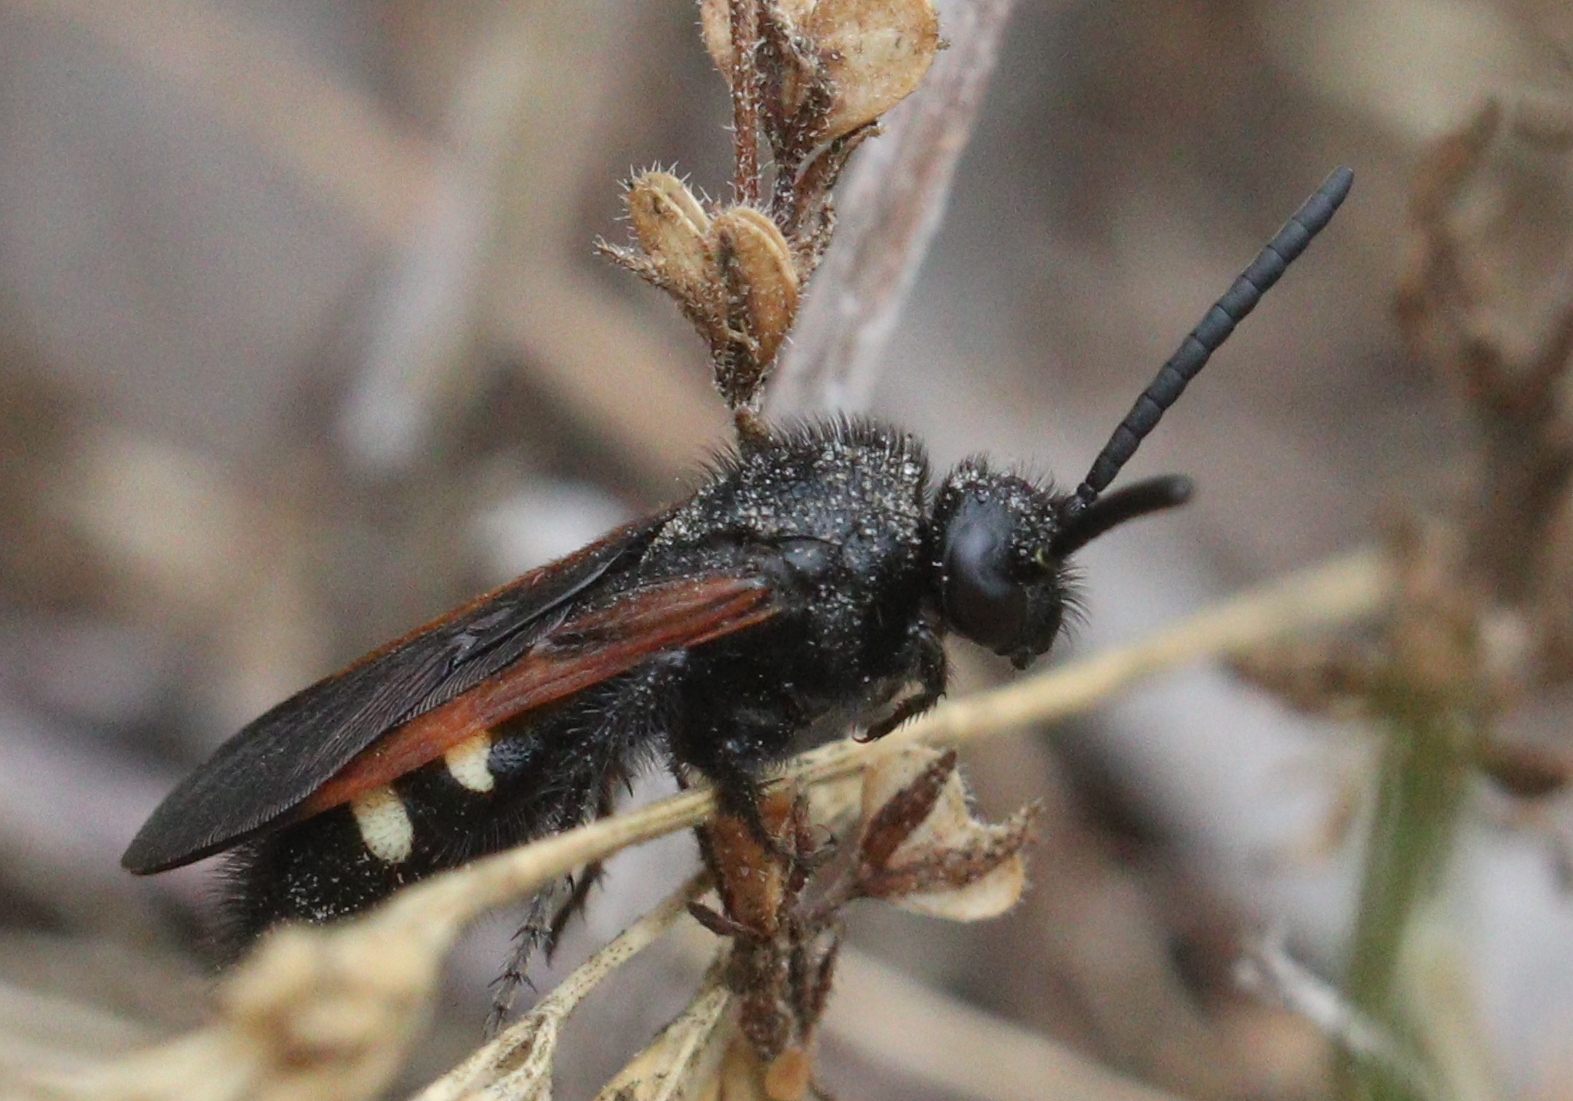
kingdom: Animalia
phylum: Arthropoda
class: Insecta
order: Hymenoptera
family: Vespidae
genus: Vespa
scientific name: Vespa sexmaculata
